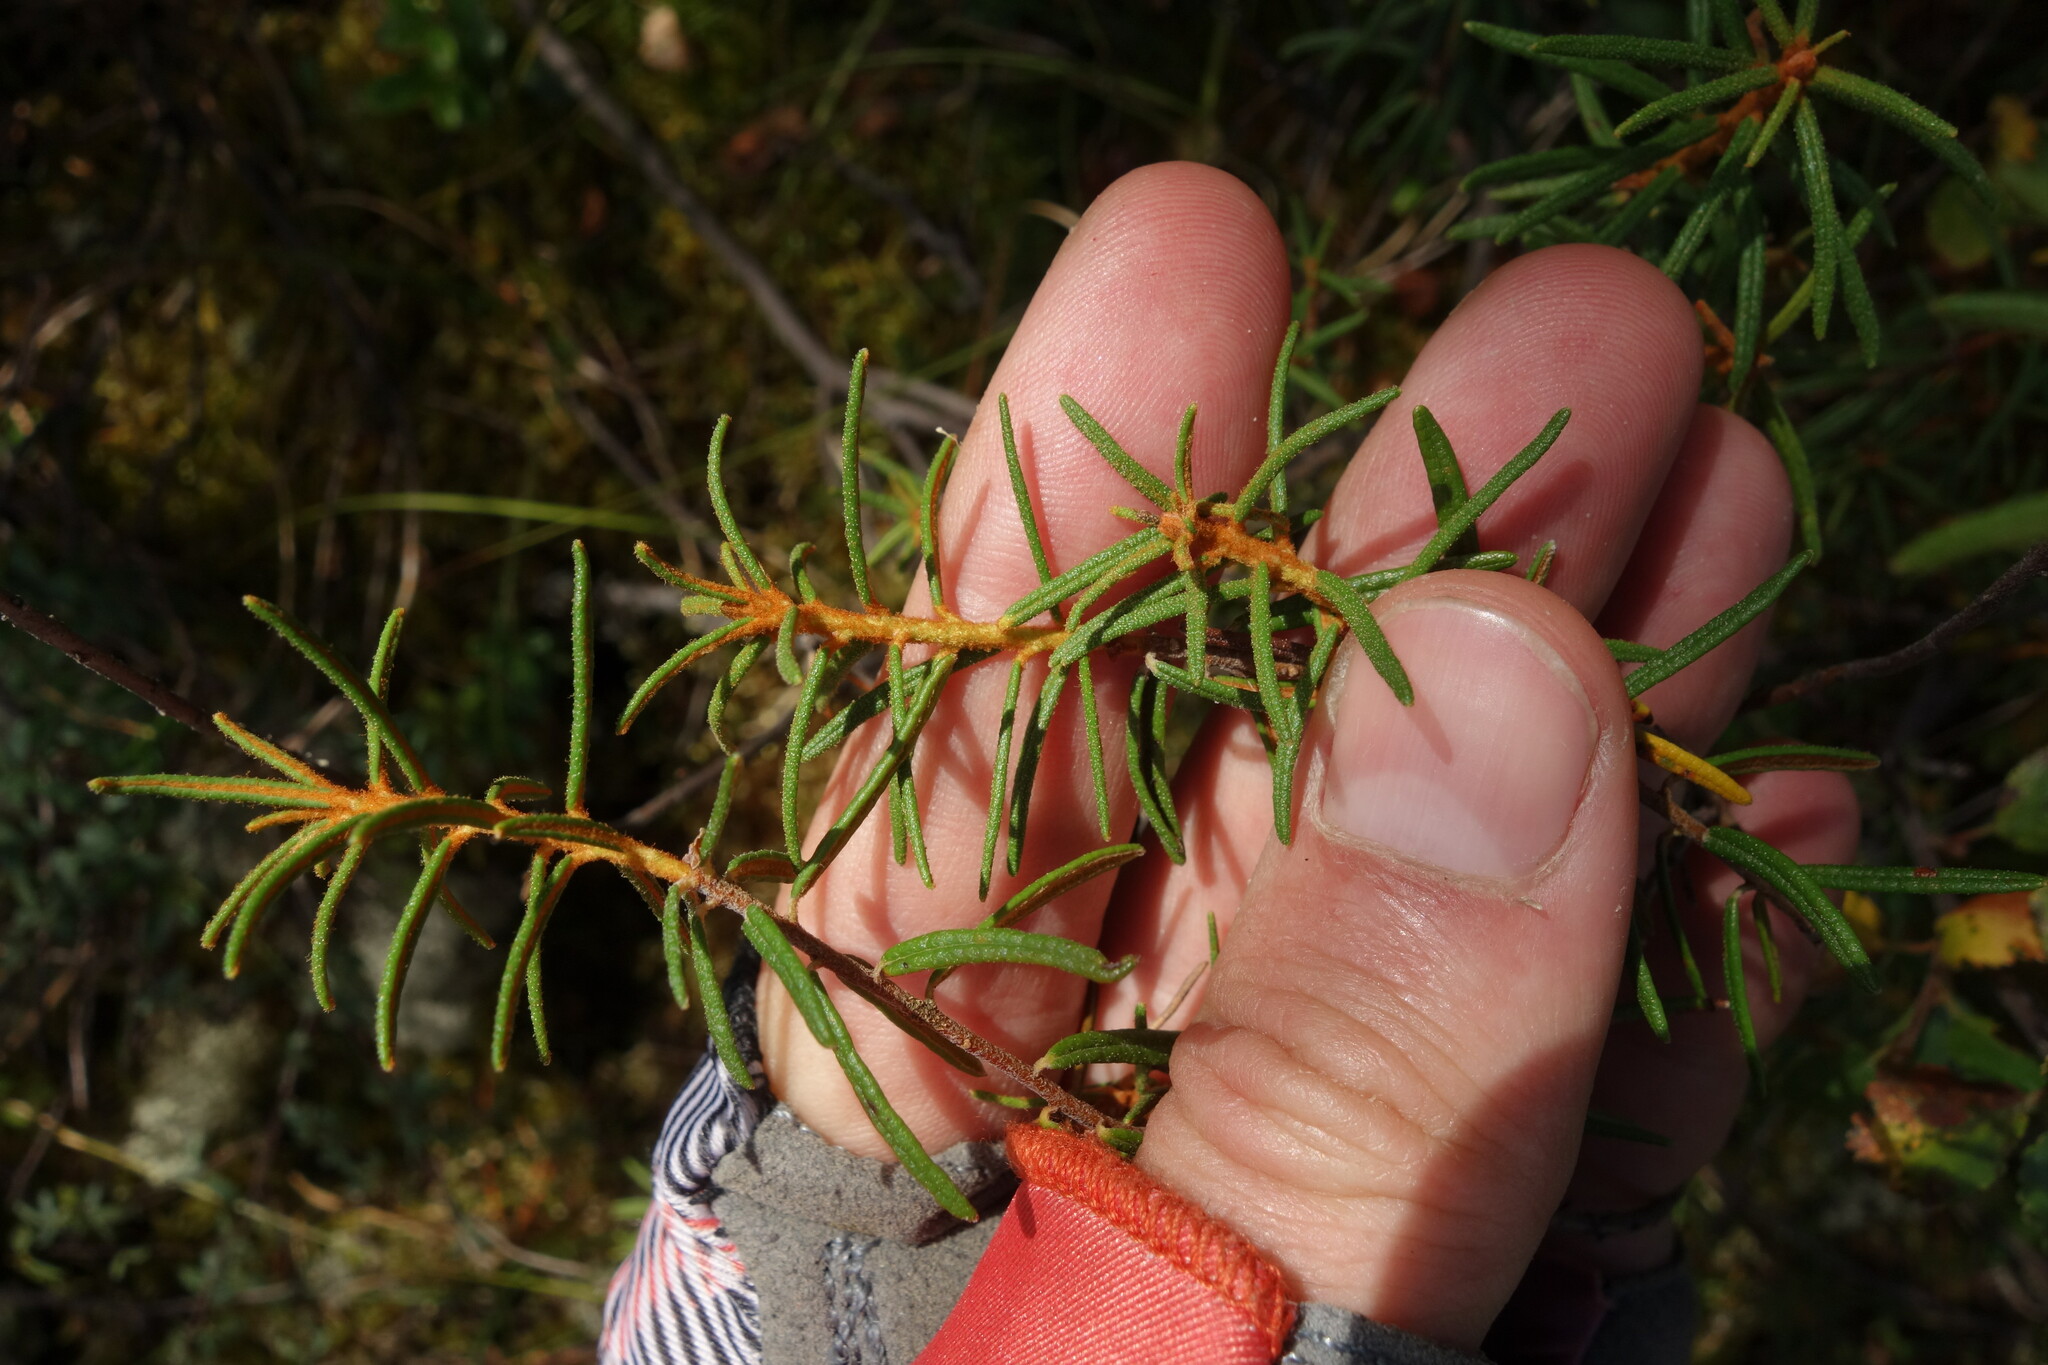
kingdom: Plantae
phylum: Tracheophyta
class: Magnoliopsida
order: Ericales
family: Ericaceae
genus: Rhododendron
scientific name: Rhododendron tomentosum
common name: Marsh labrador tea
